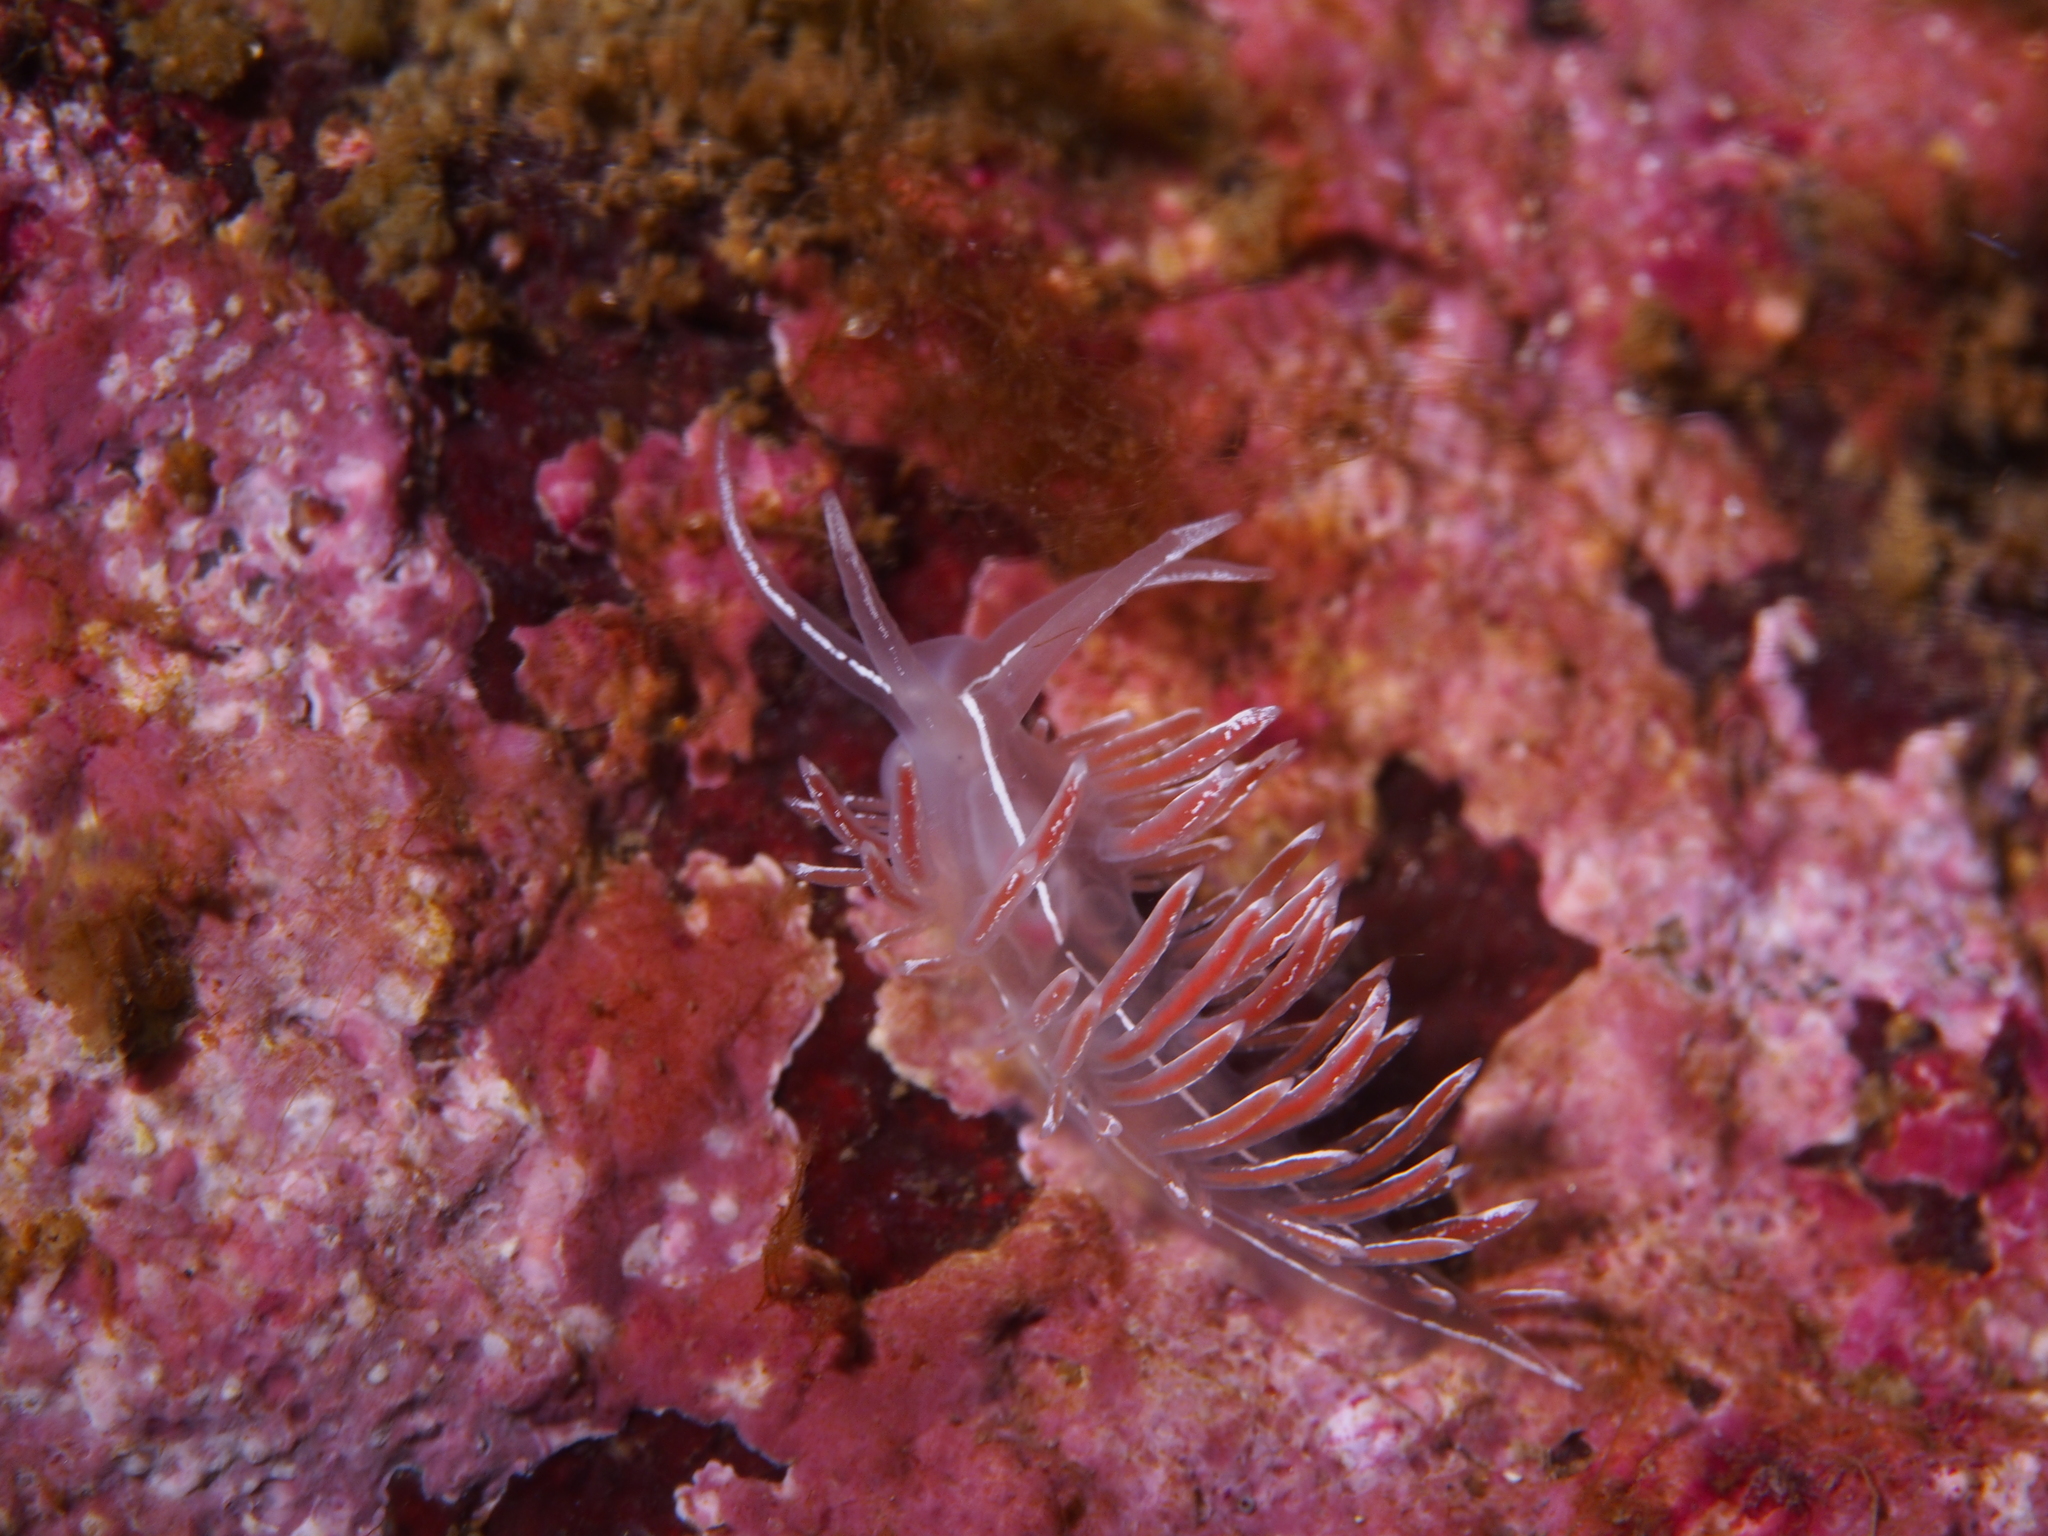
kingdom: Animalia
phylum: Mollusca
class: Gastropoda
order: Nudibranchia
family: Coryphellidae
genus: Coryphella
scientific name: Coryphella lineata
